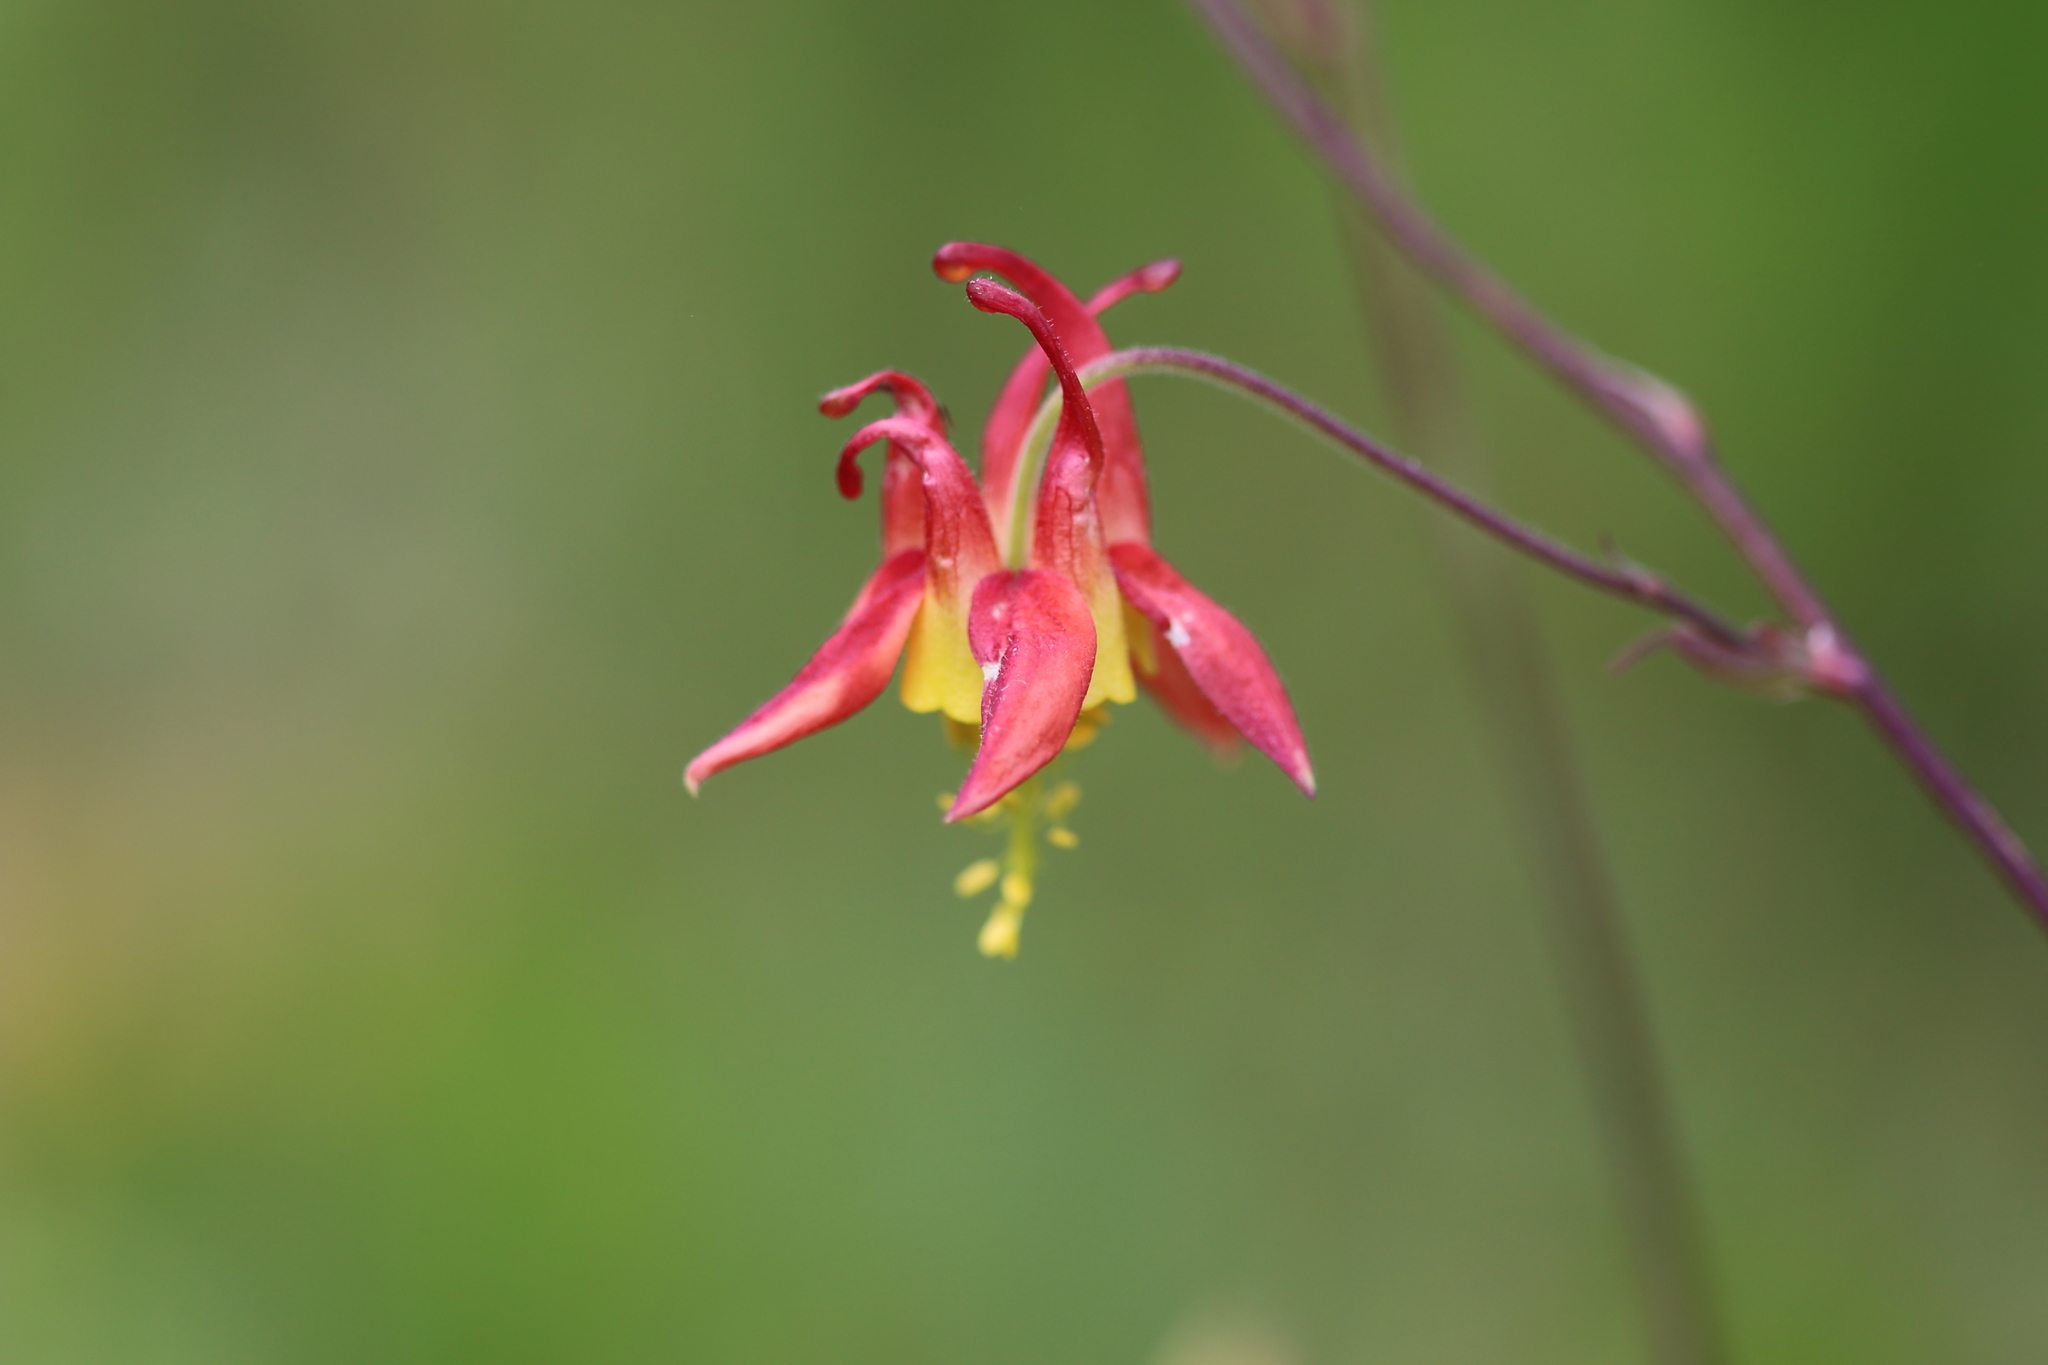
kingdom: Plantae
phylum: Tracheophyta
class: Magnoliopsida
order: Ranunculales
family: Ranunculaceae
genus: Aquilegia
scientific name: Aquilegia formosa
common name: Sitka columbine
